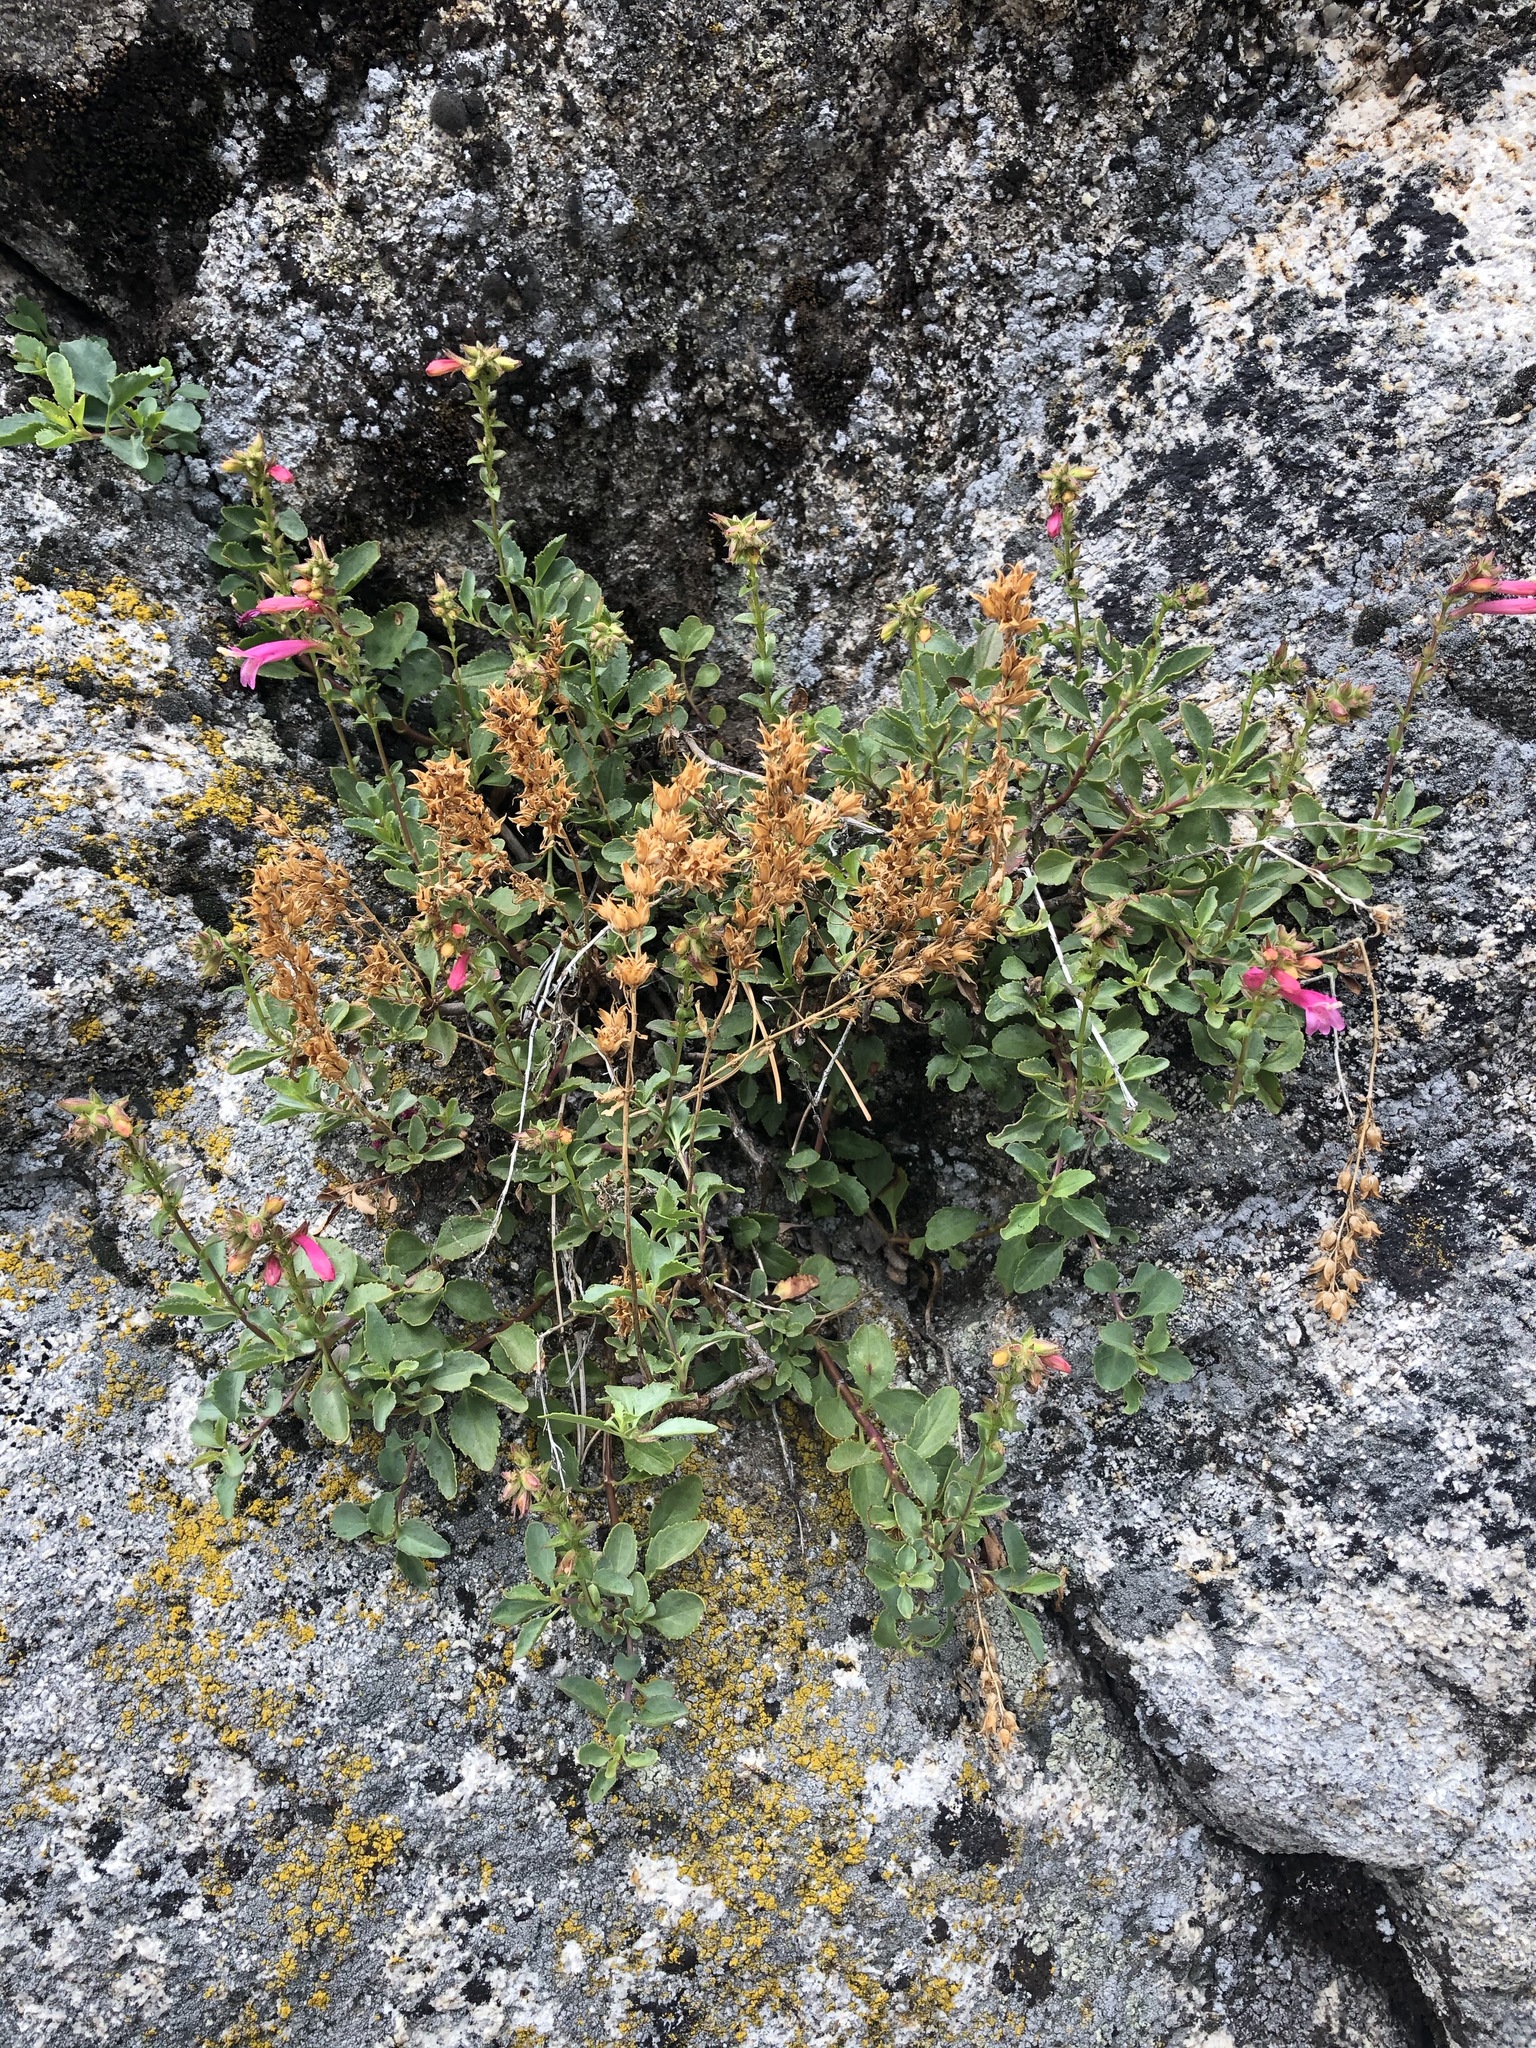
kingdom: Plantae
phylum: Tracheophyta
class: Magnoliopsida
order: Lamiales
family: Plantaginaceae
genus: Penstemon
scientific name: Penstemon newberryi
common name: Mountain-pride
